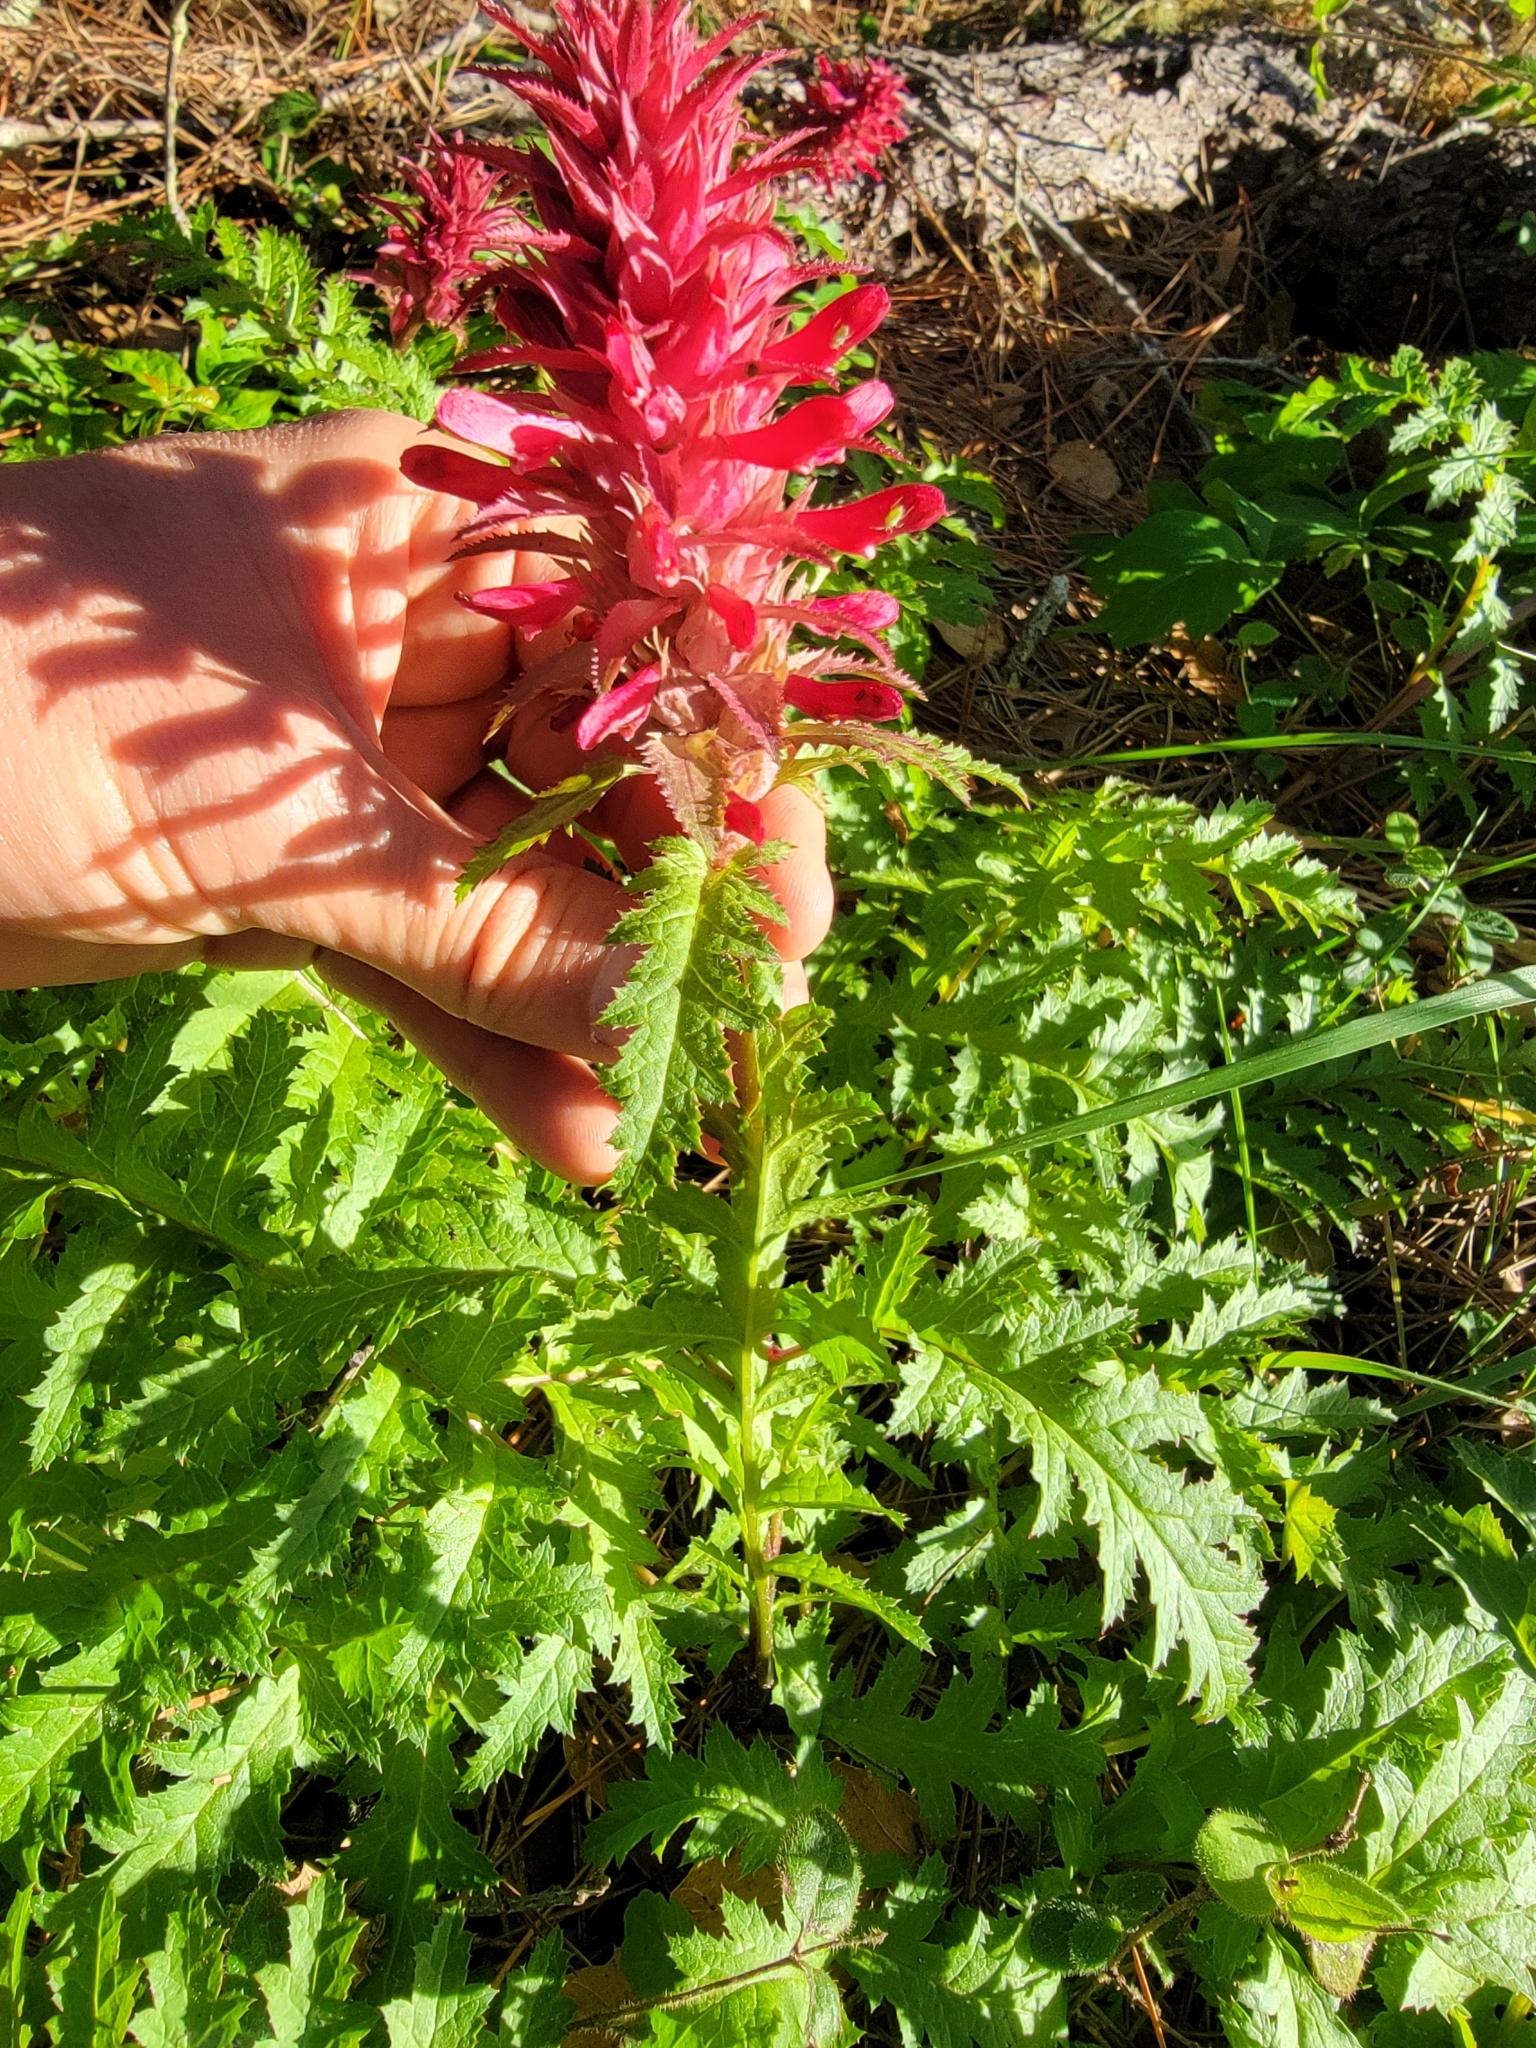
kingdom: Plantae
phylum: Tracheophyta
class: Magnoliopsida
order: Lamiales
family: Orobanchaceae
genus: Pedicularis
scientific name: Pedicularis densiflora
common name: Indian warrior
